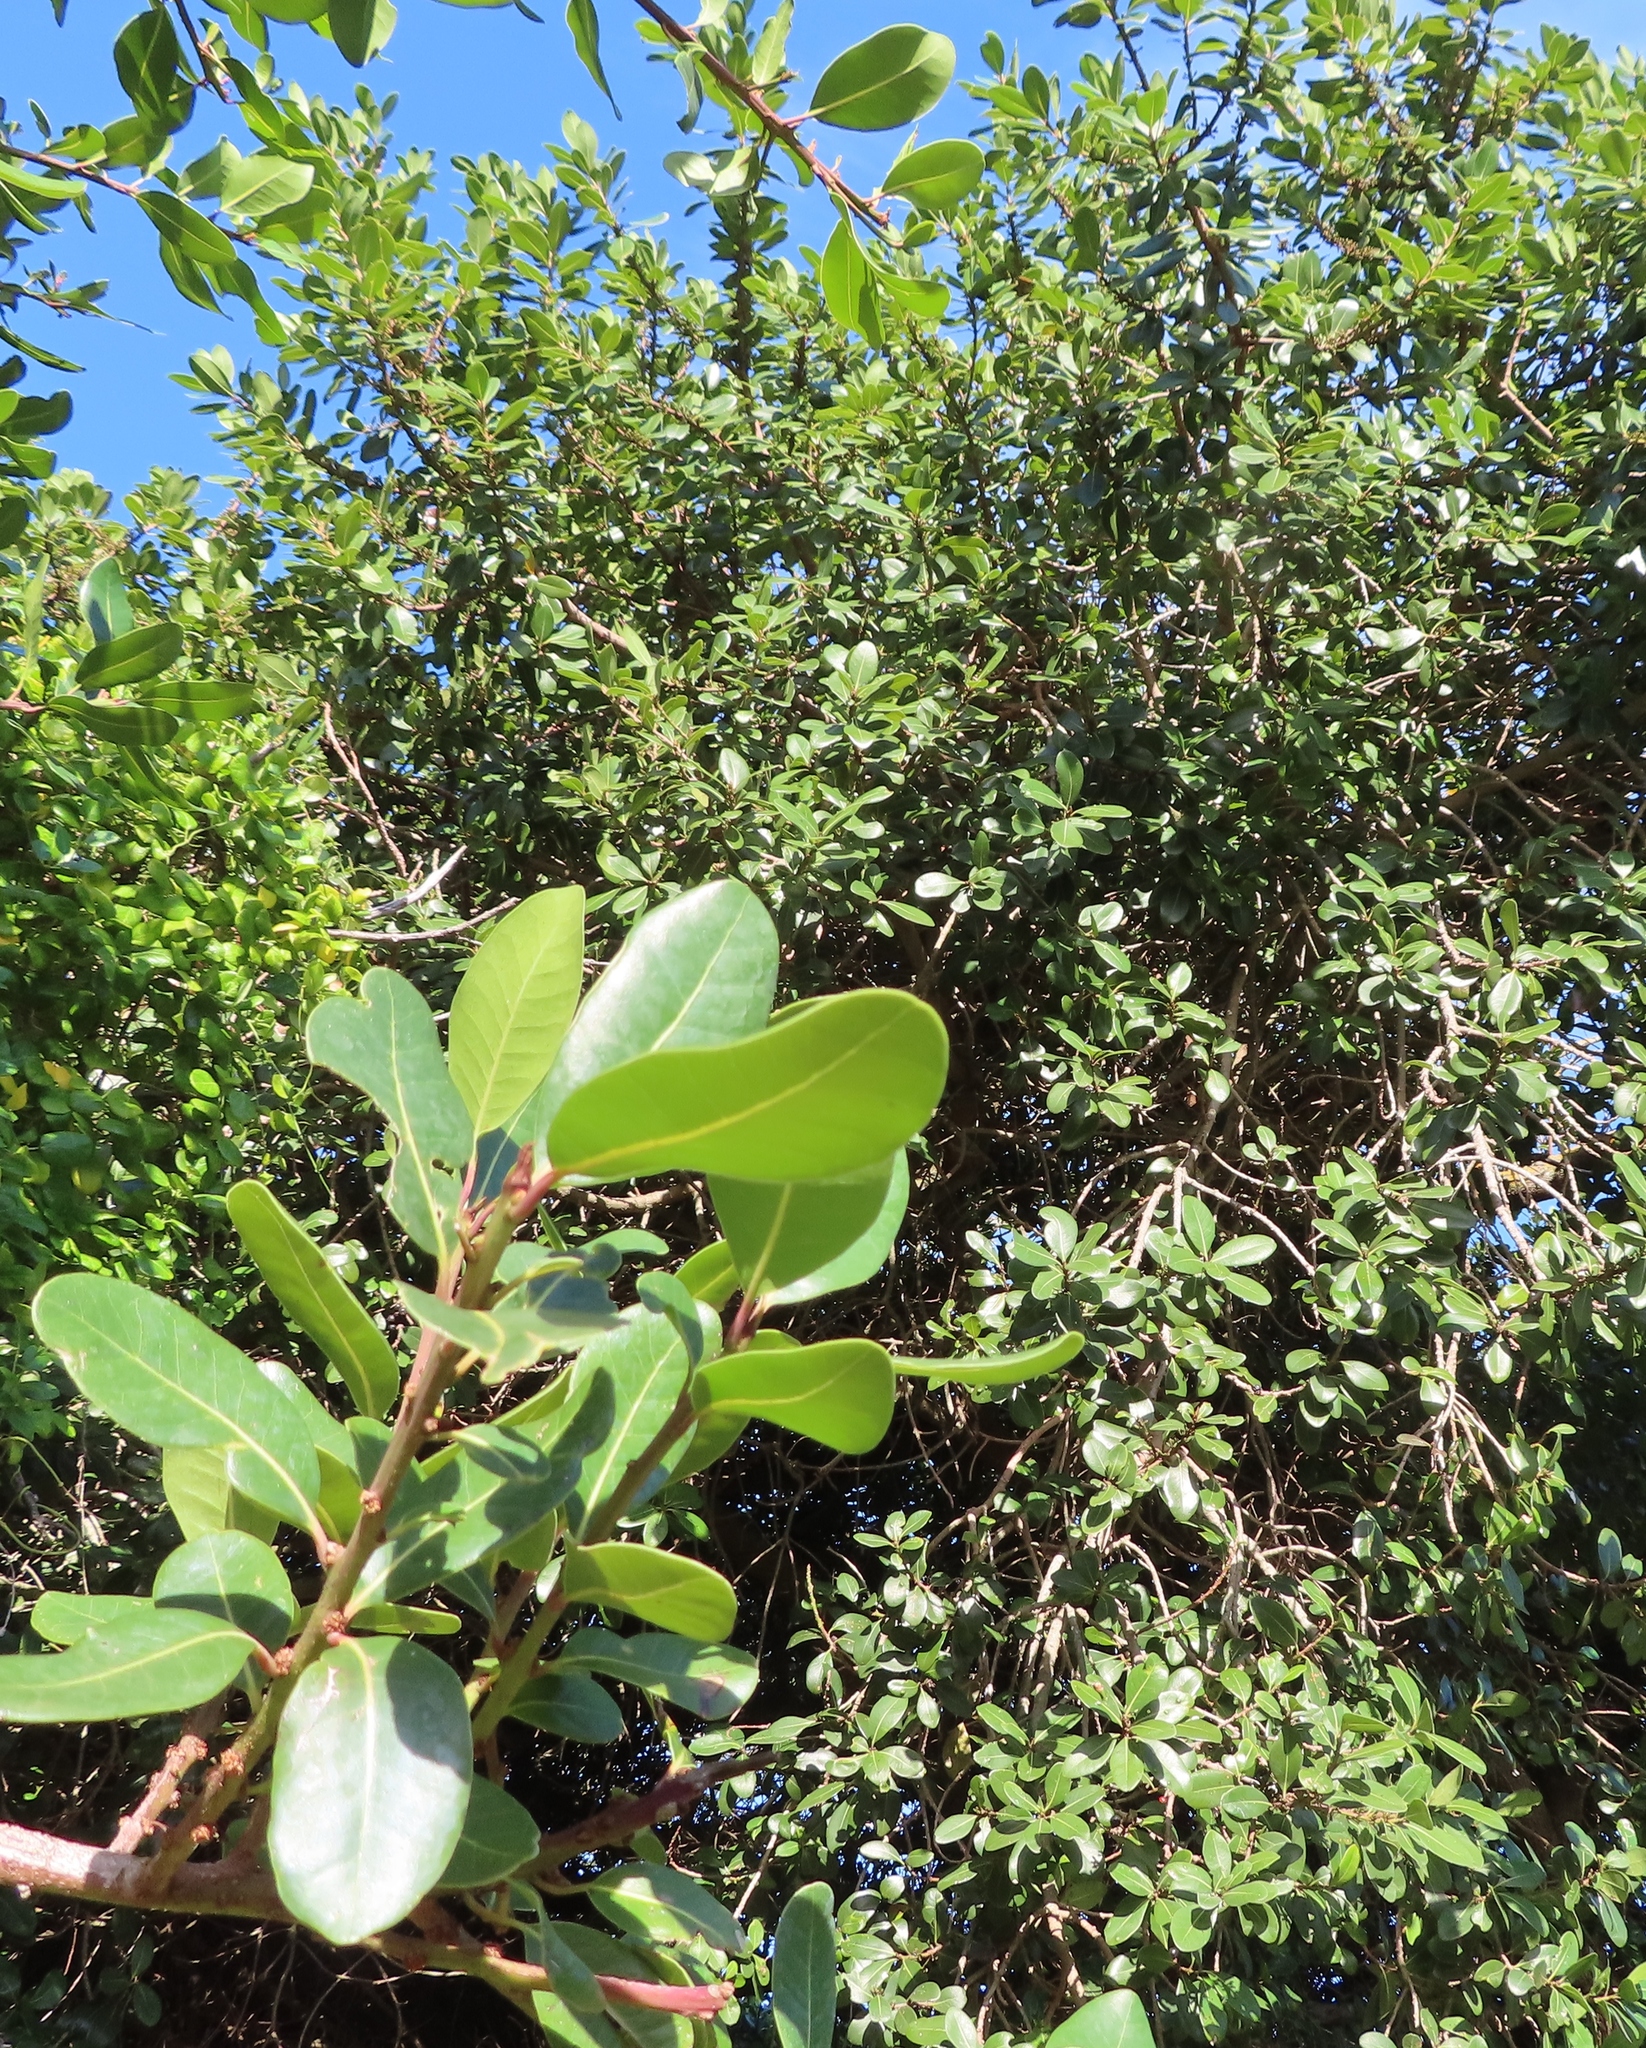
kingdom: Plantae
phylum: Tracheophyta
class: Magnoliopsida
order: Ericales
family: Sapotaceae
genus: Sideroxylon
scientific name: Sideroxylon inerme
